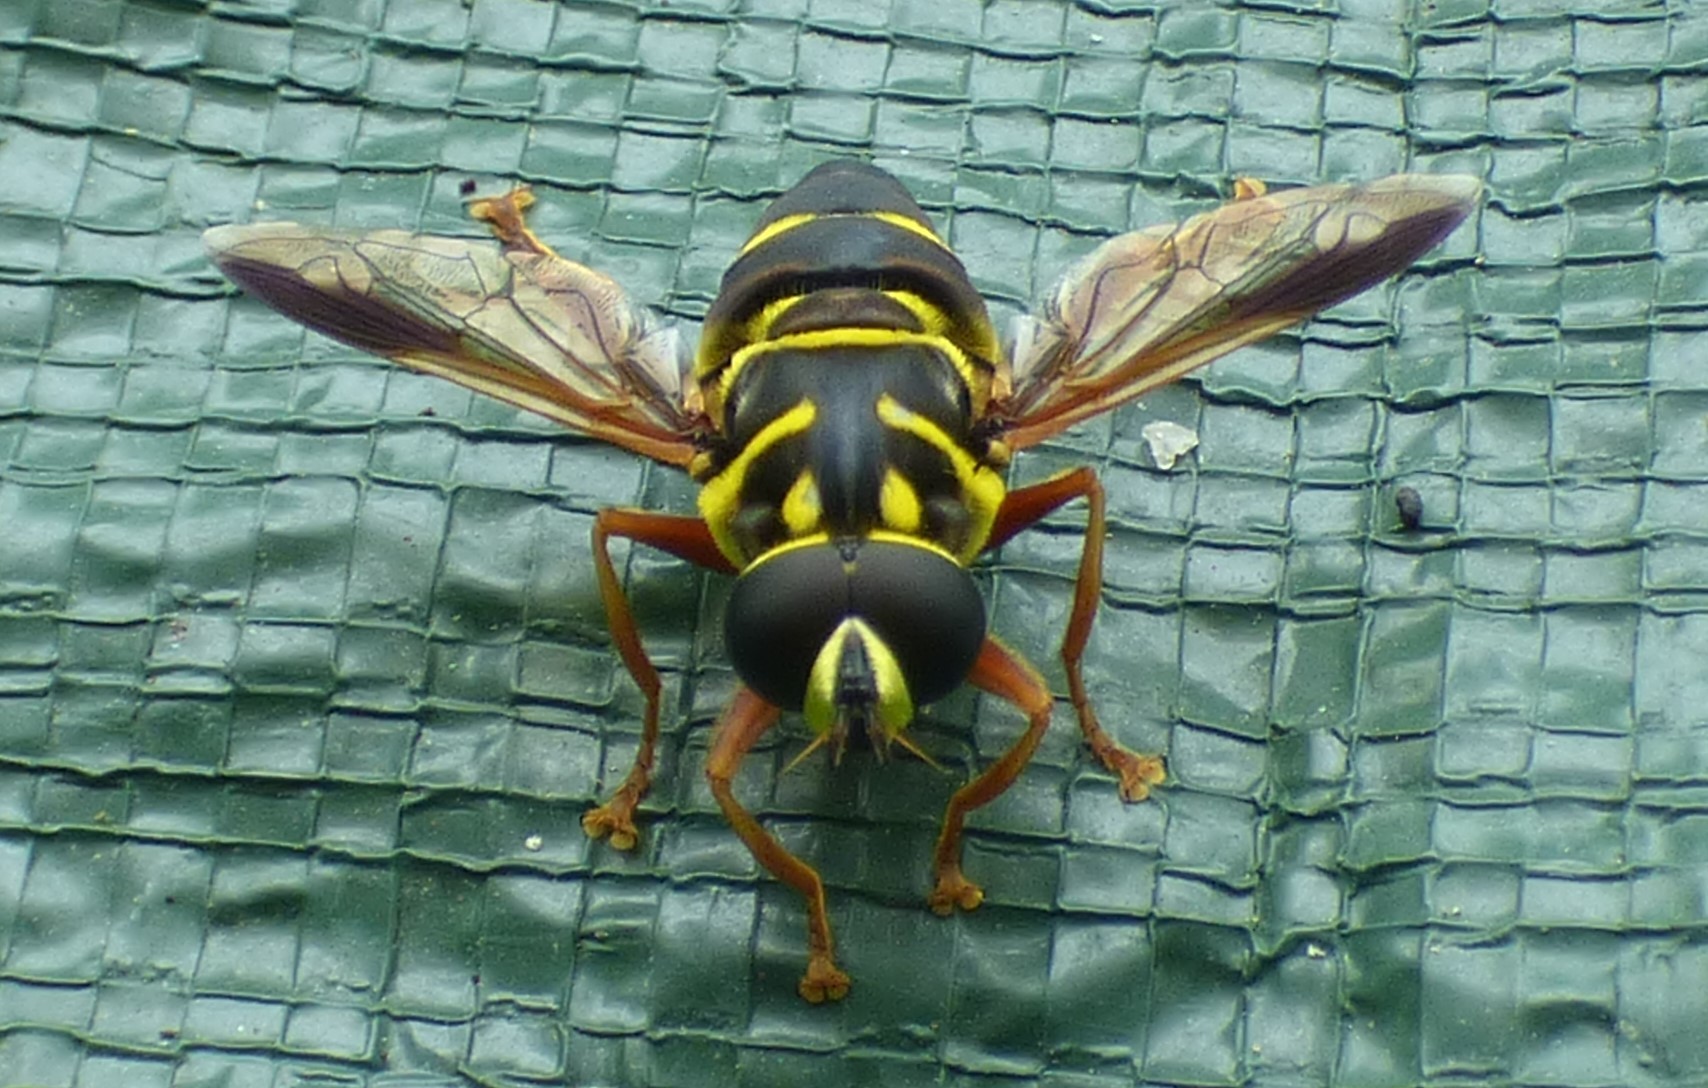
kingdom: Animalia
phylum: Arthropoda
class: Insecta
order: Diptera
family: Syrphidae
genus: Meromacrus
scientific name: Meromacrus acutus
